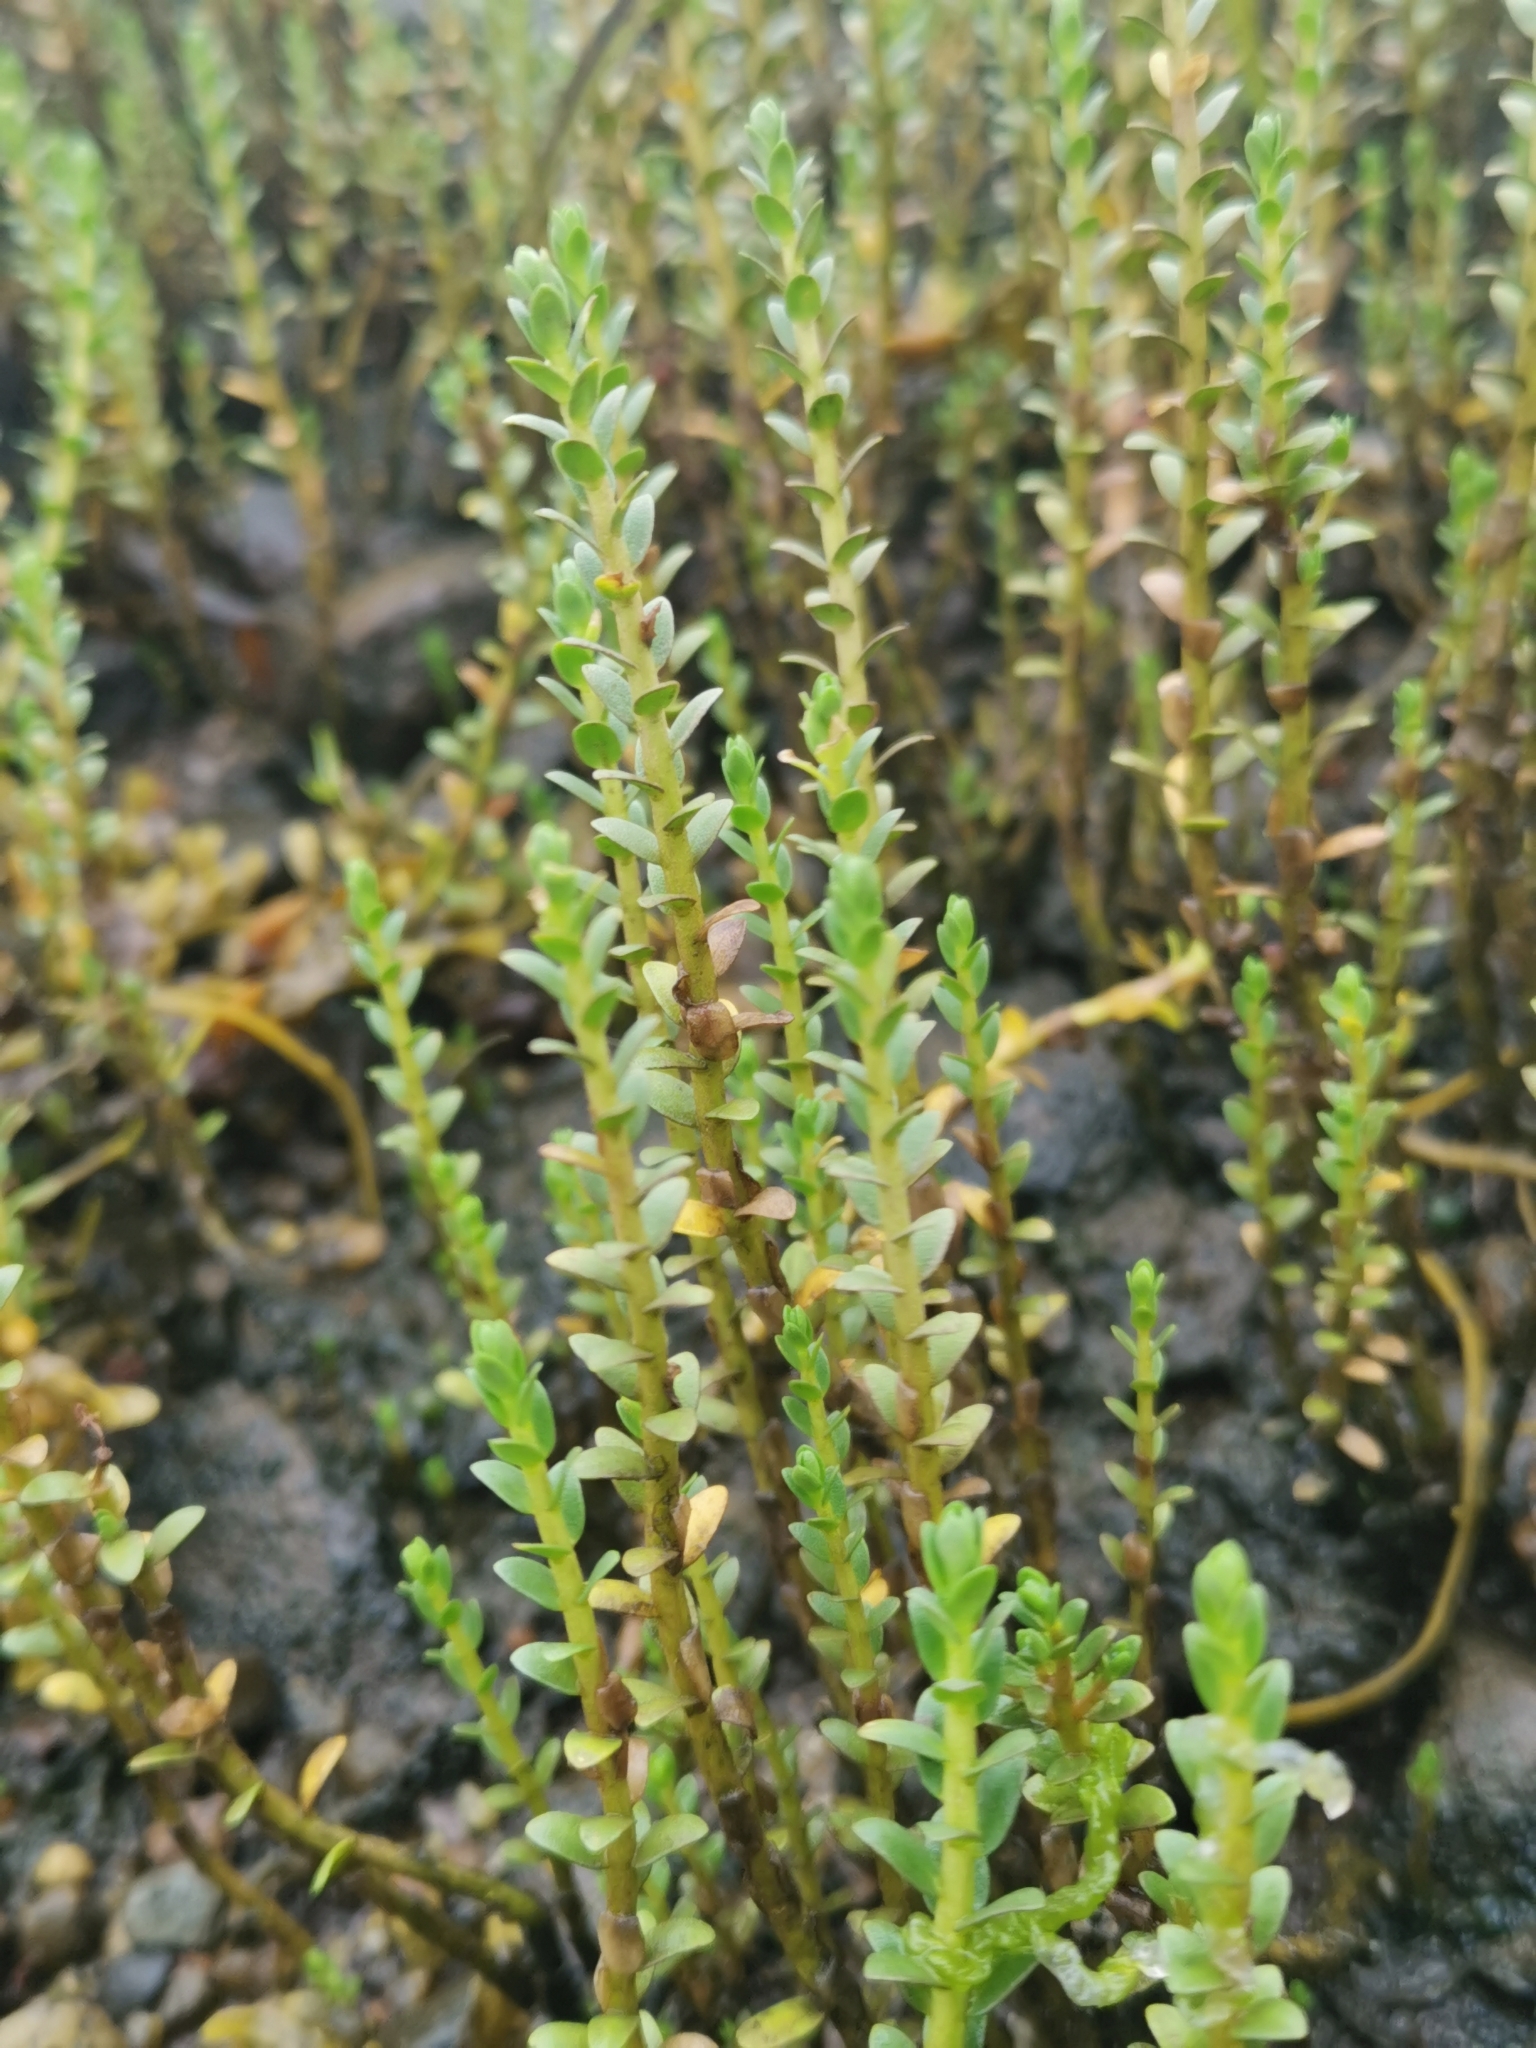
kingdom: Plantae
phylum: Tracheophyta
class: Magnoliopsida
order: Ericales
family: Primulaceae
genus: Lysimachia
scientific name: Lysimachia maritima
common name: Sea milkwort
